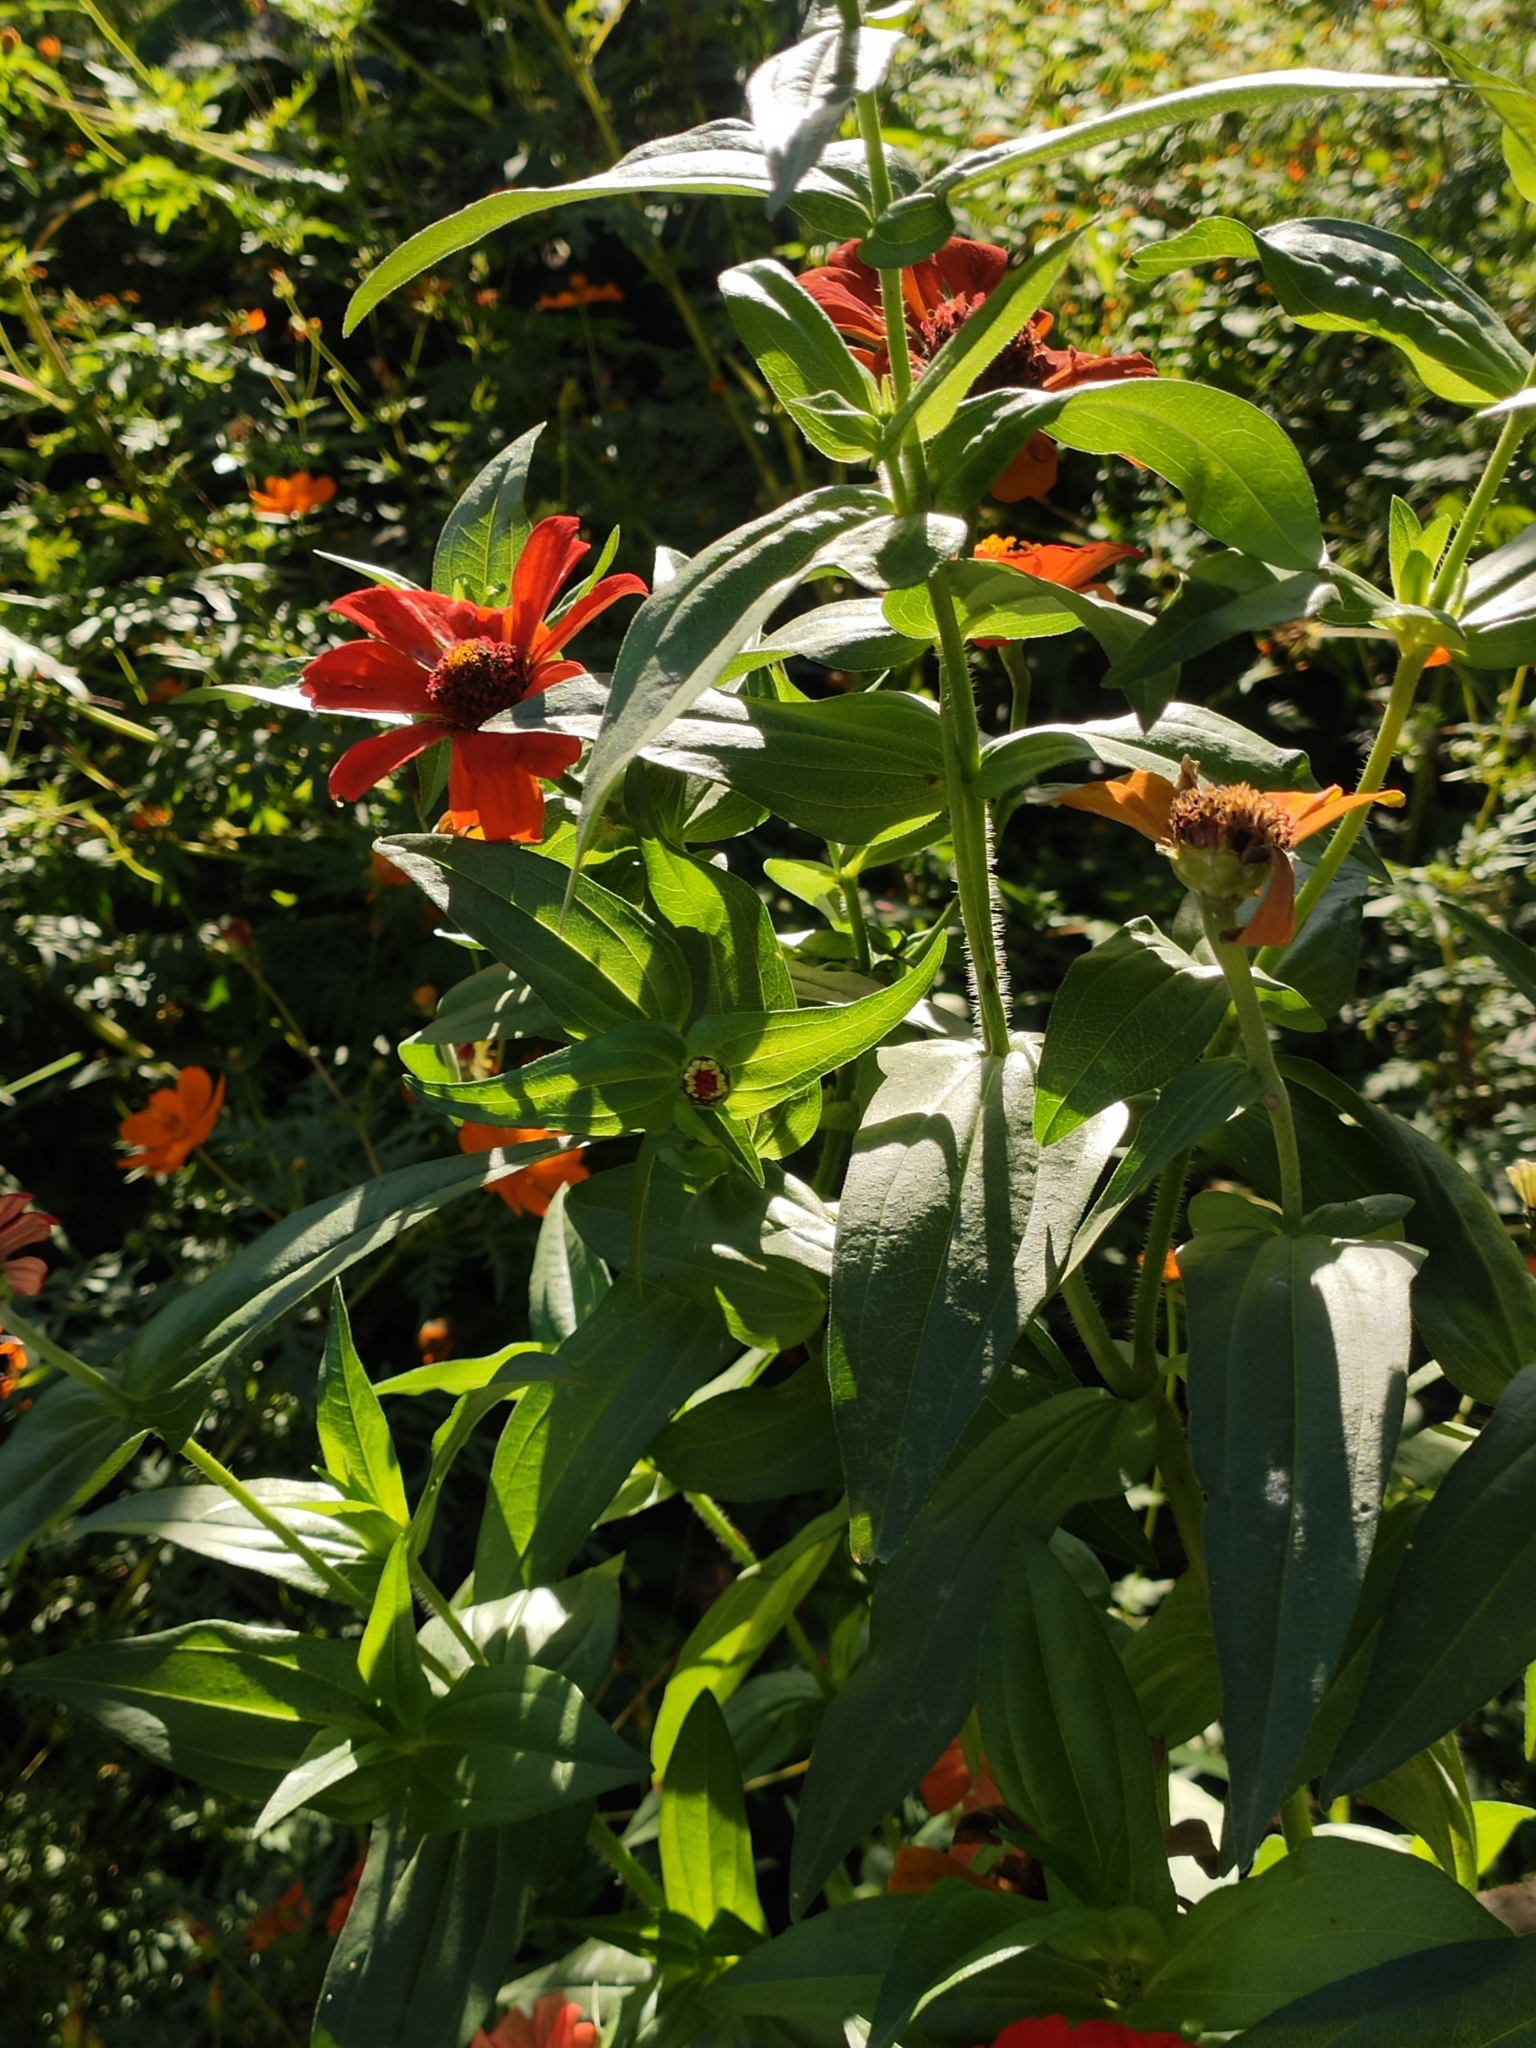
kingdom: Plantae
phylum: Tracheophyta
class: Magnoliopsida
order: Asterales
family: Asteraceae
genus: Zinnia
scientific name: Zinnia elegans
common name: Youth-and-age
